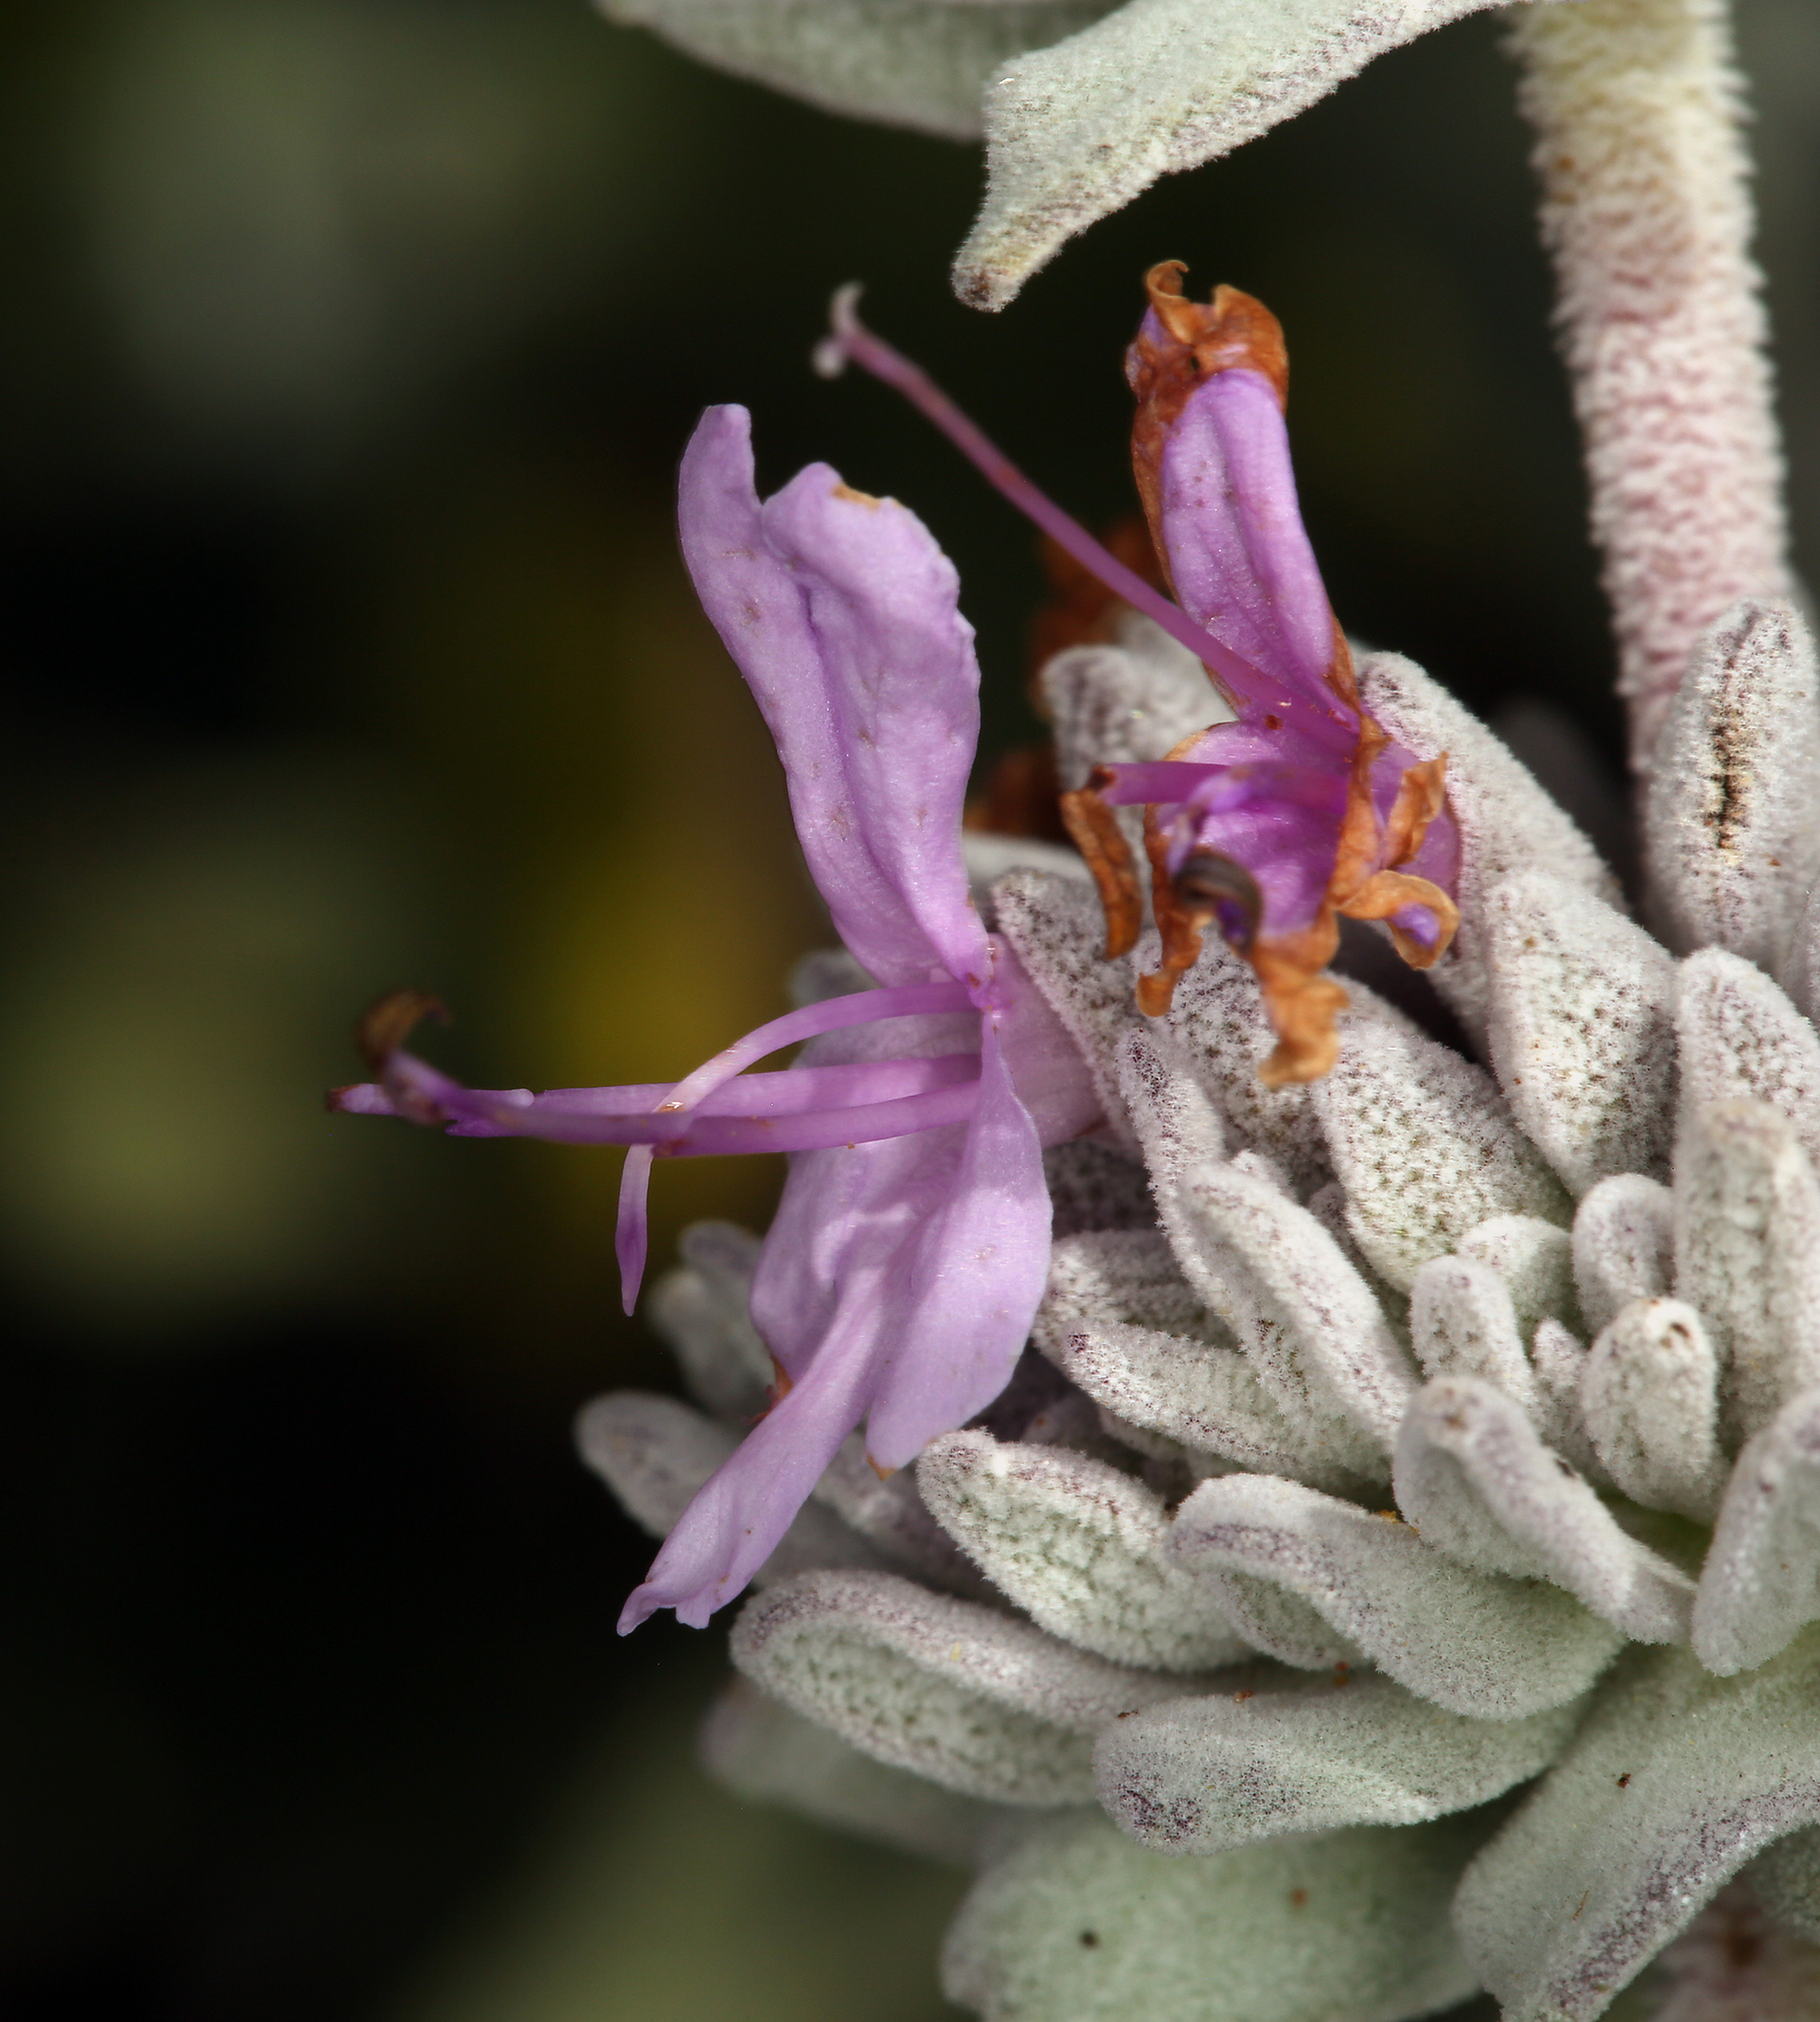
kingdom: Plantae
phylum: Tracheophyta
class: Magnoliopsida
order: Lamiales
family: Lamiaceae
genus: Salvia
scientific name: Salvia leucophylla
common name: Purple sage
